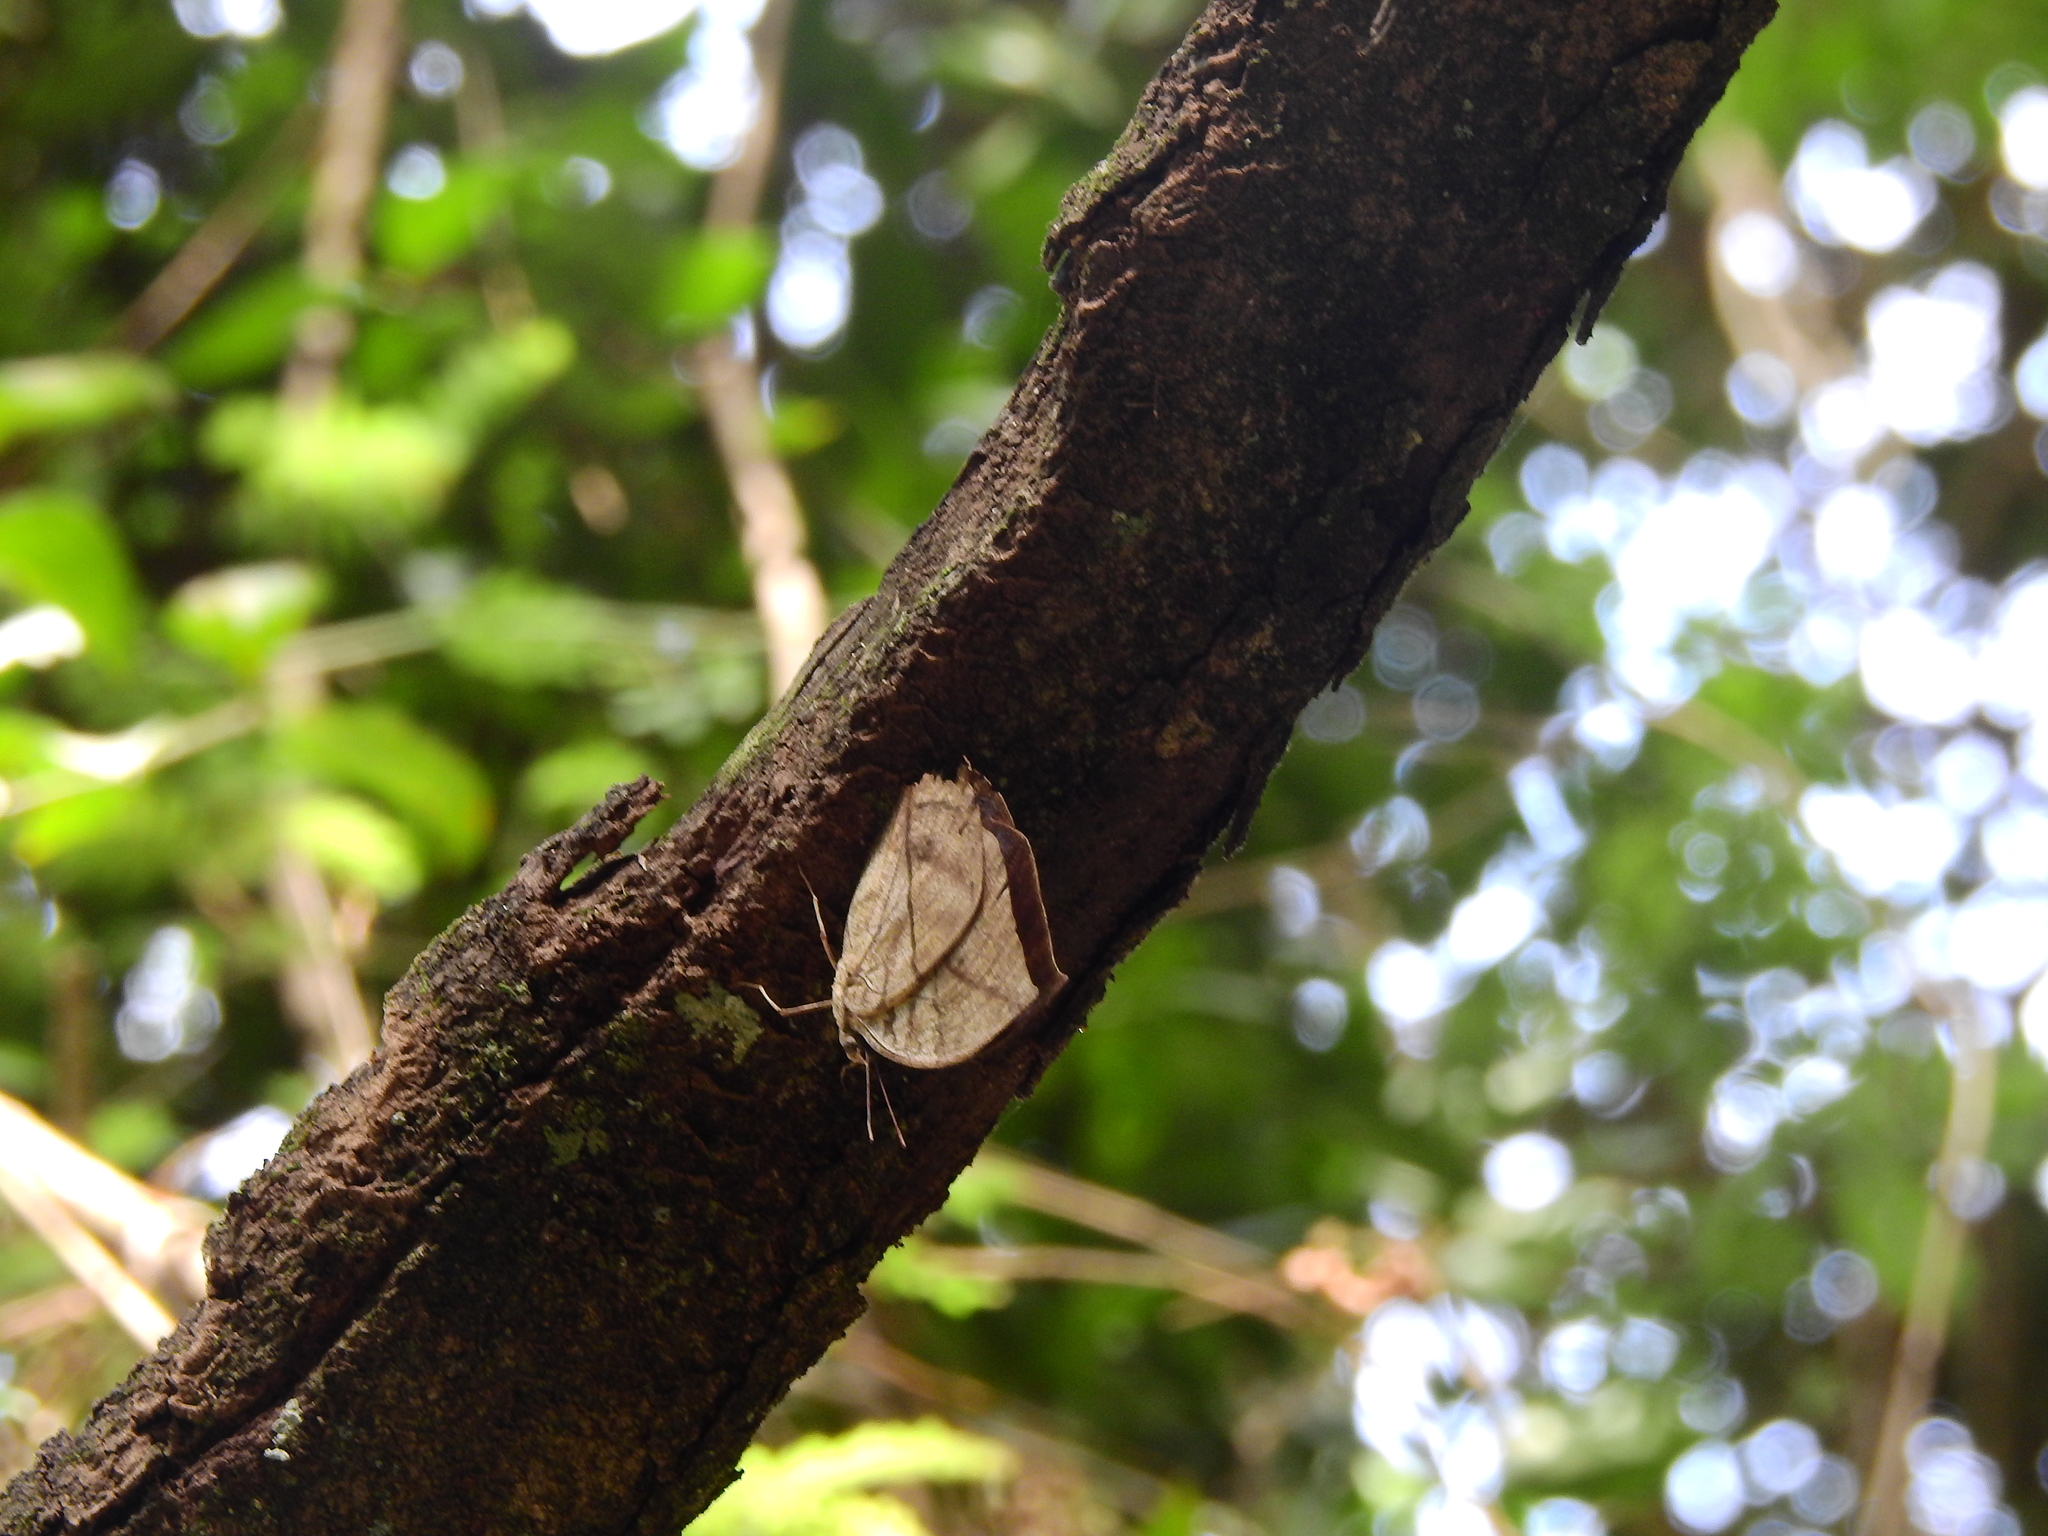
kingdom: Animalia
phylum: Arthropoda
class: Insecta
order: Lepidoptera
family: Nymphalidae
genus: Kallima
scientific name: Kallima horsfieldii
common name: Sahyadri blue oakleaf
